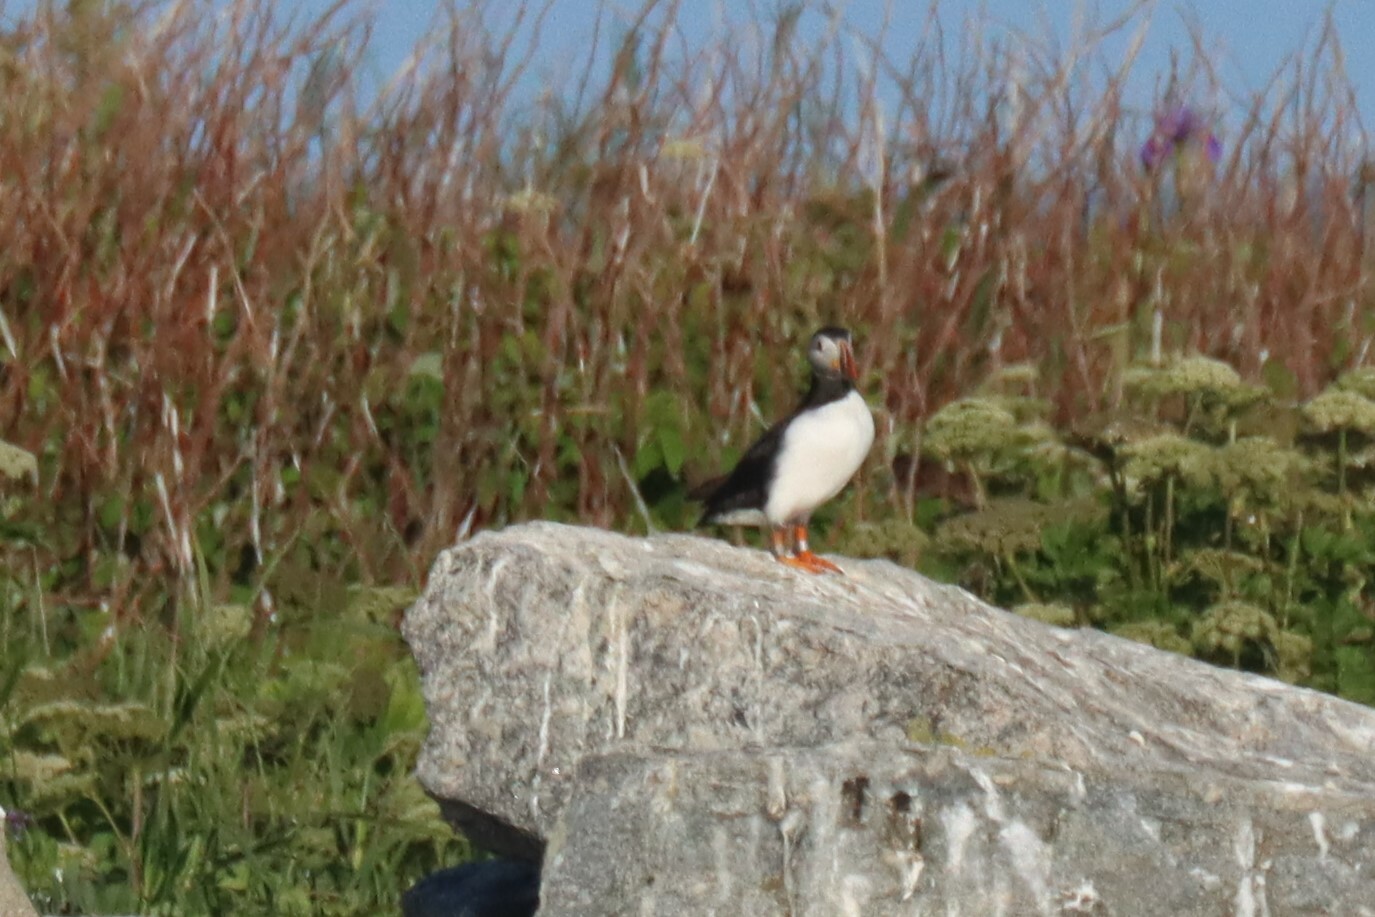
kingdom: Animalia
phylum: Chordata
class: Aves
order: Charadriiformes
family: Alcidae
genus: Fratercula
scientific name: Fratercula arctica
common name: Atlantic puffin
